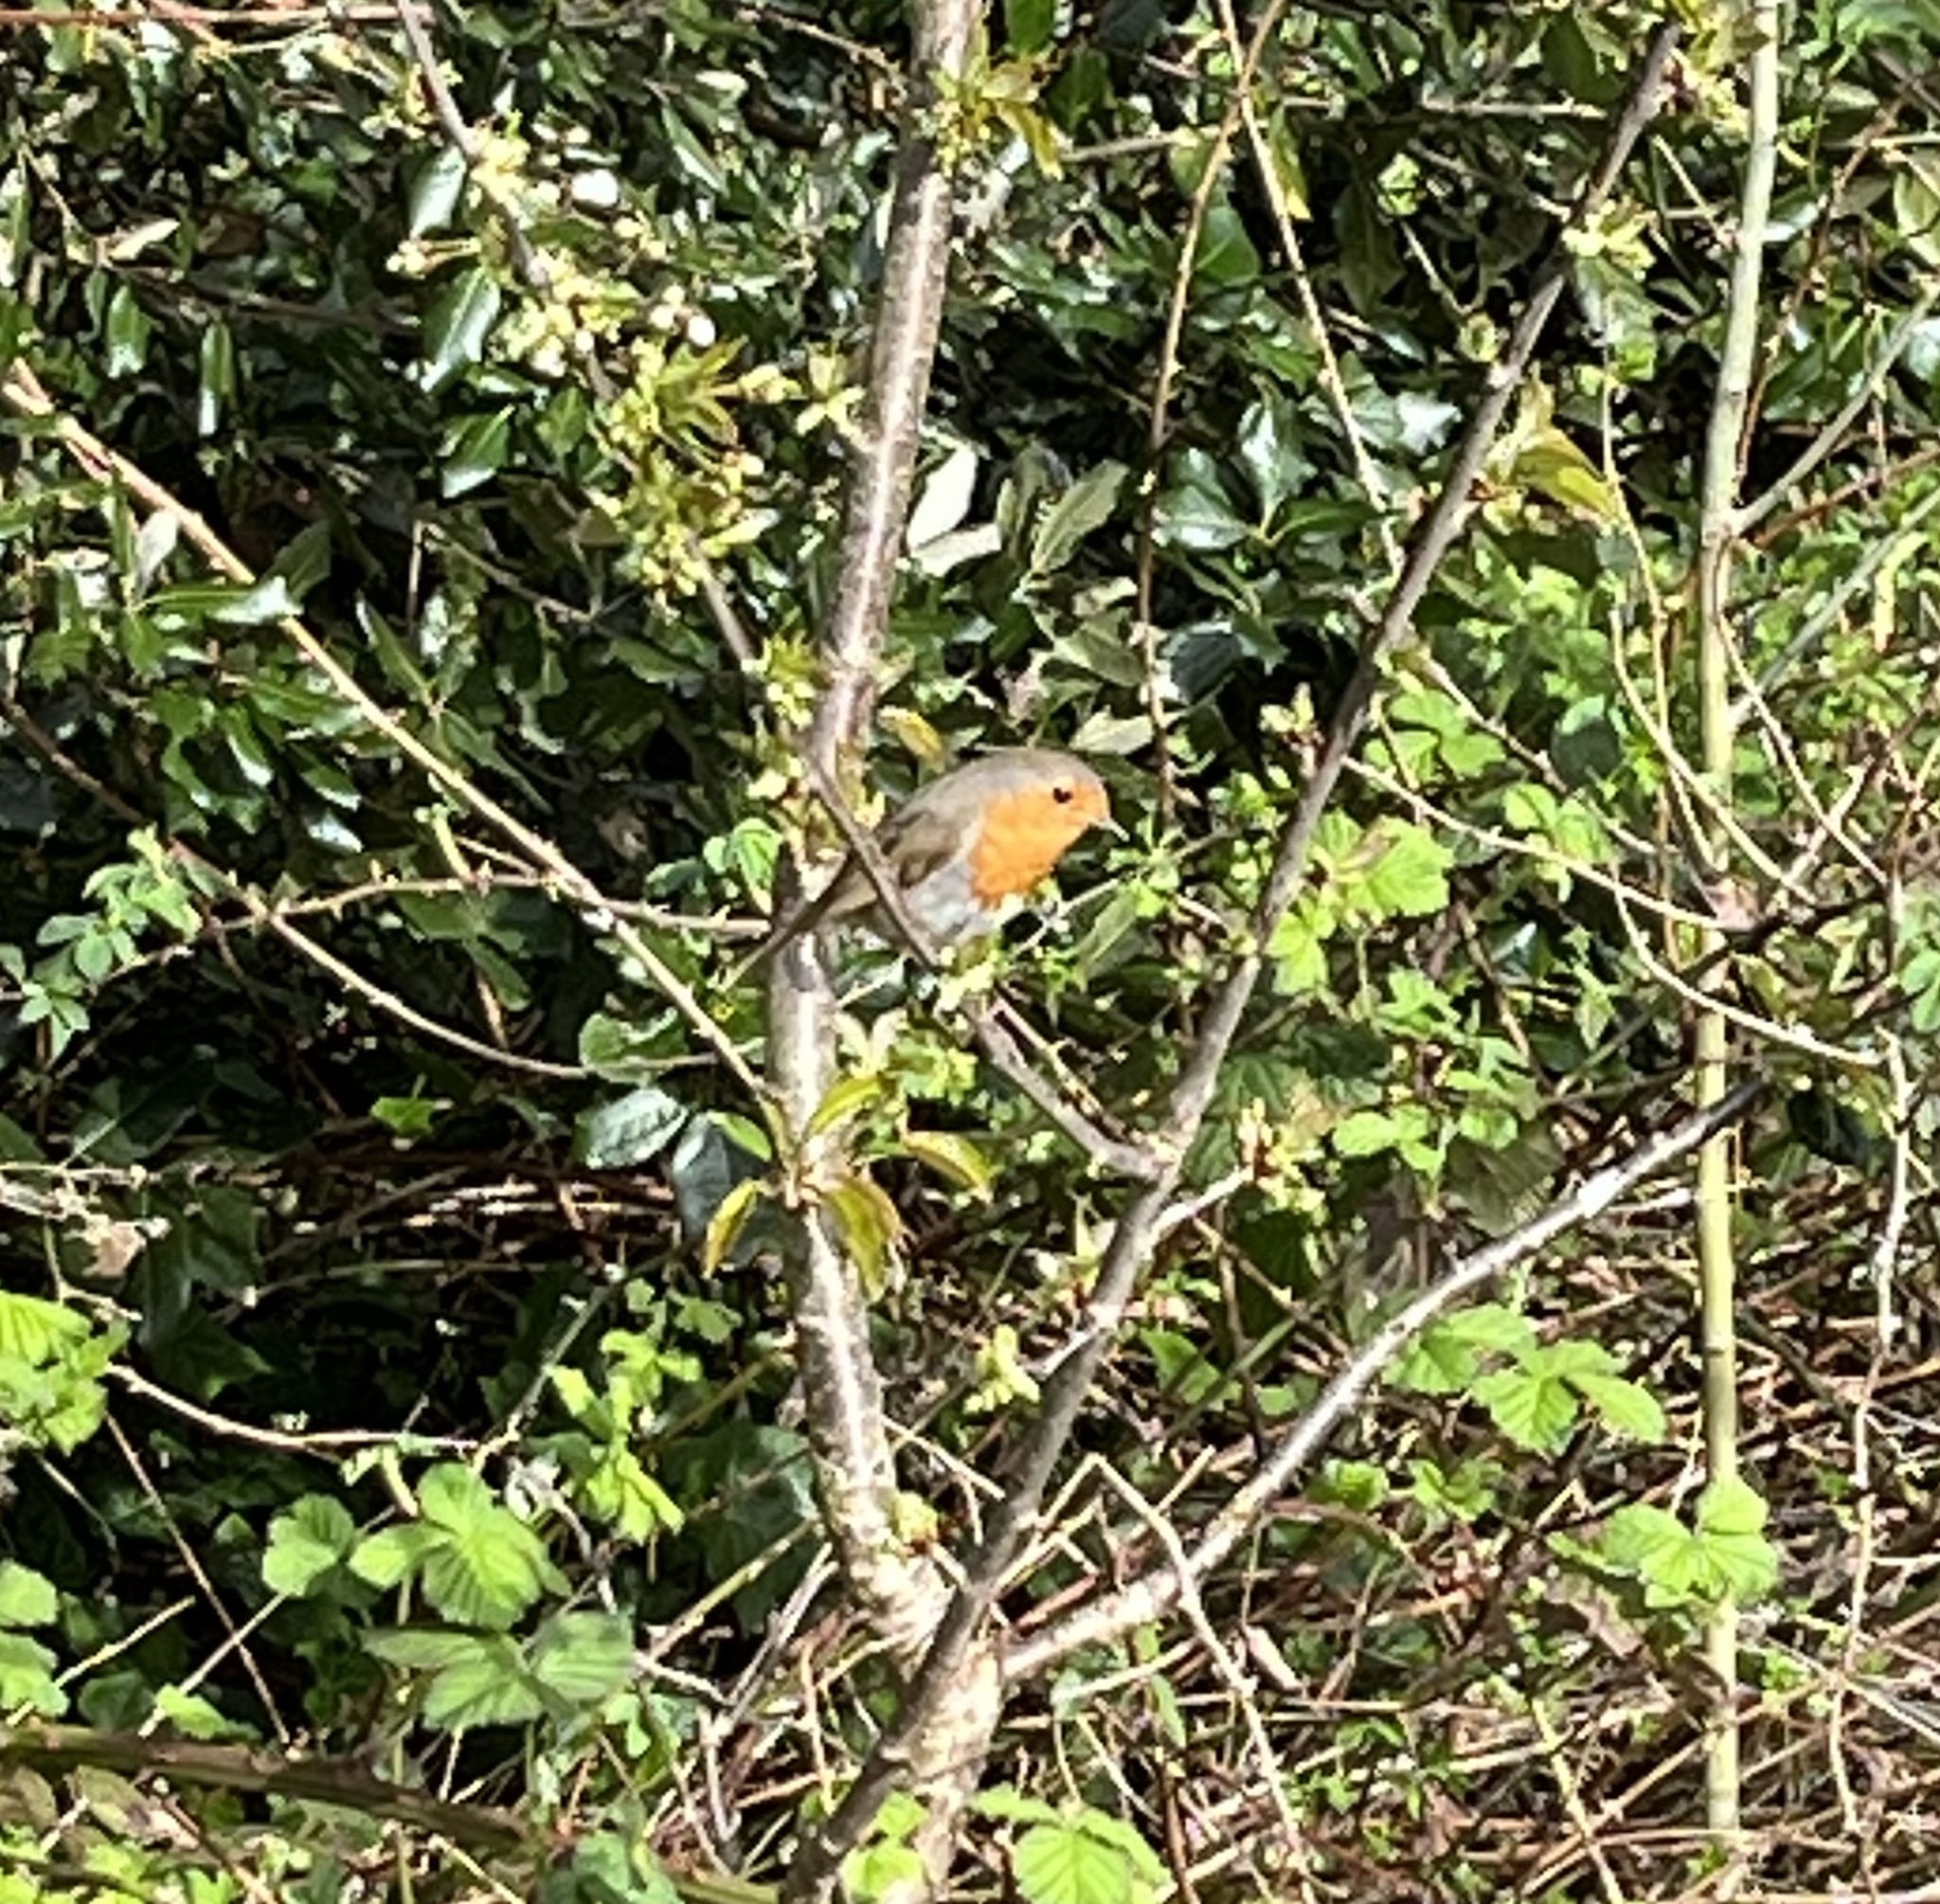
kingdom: Animalia
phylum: Chordata
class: Aves
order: Passeriformes
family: Muscicapidae
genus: Erithacus
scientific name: Erithacus rubecula
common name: European robin
